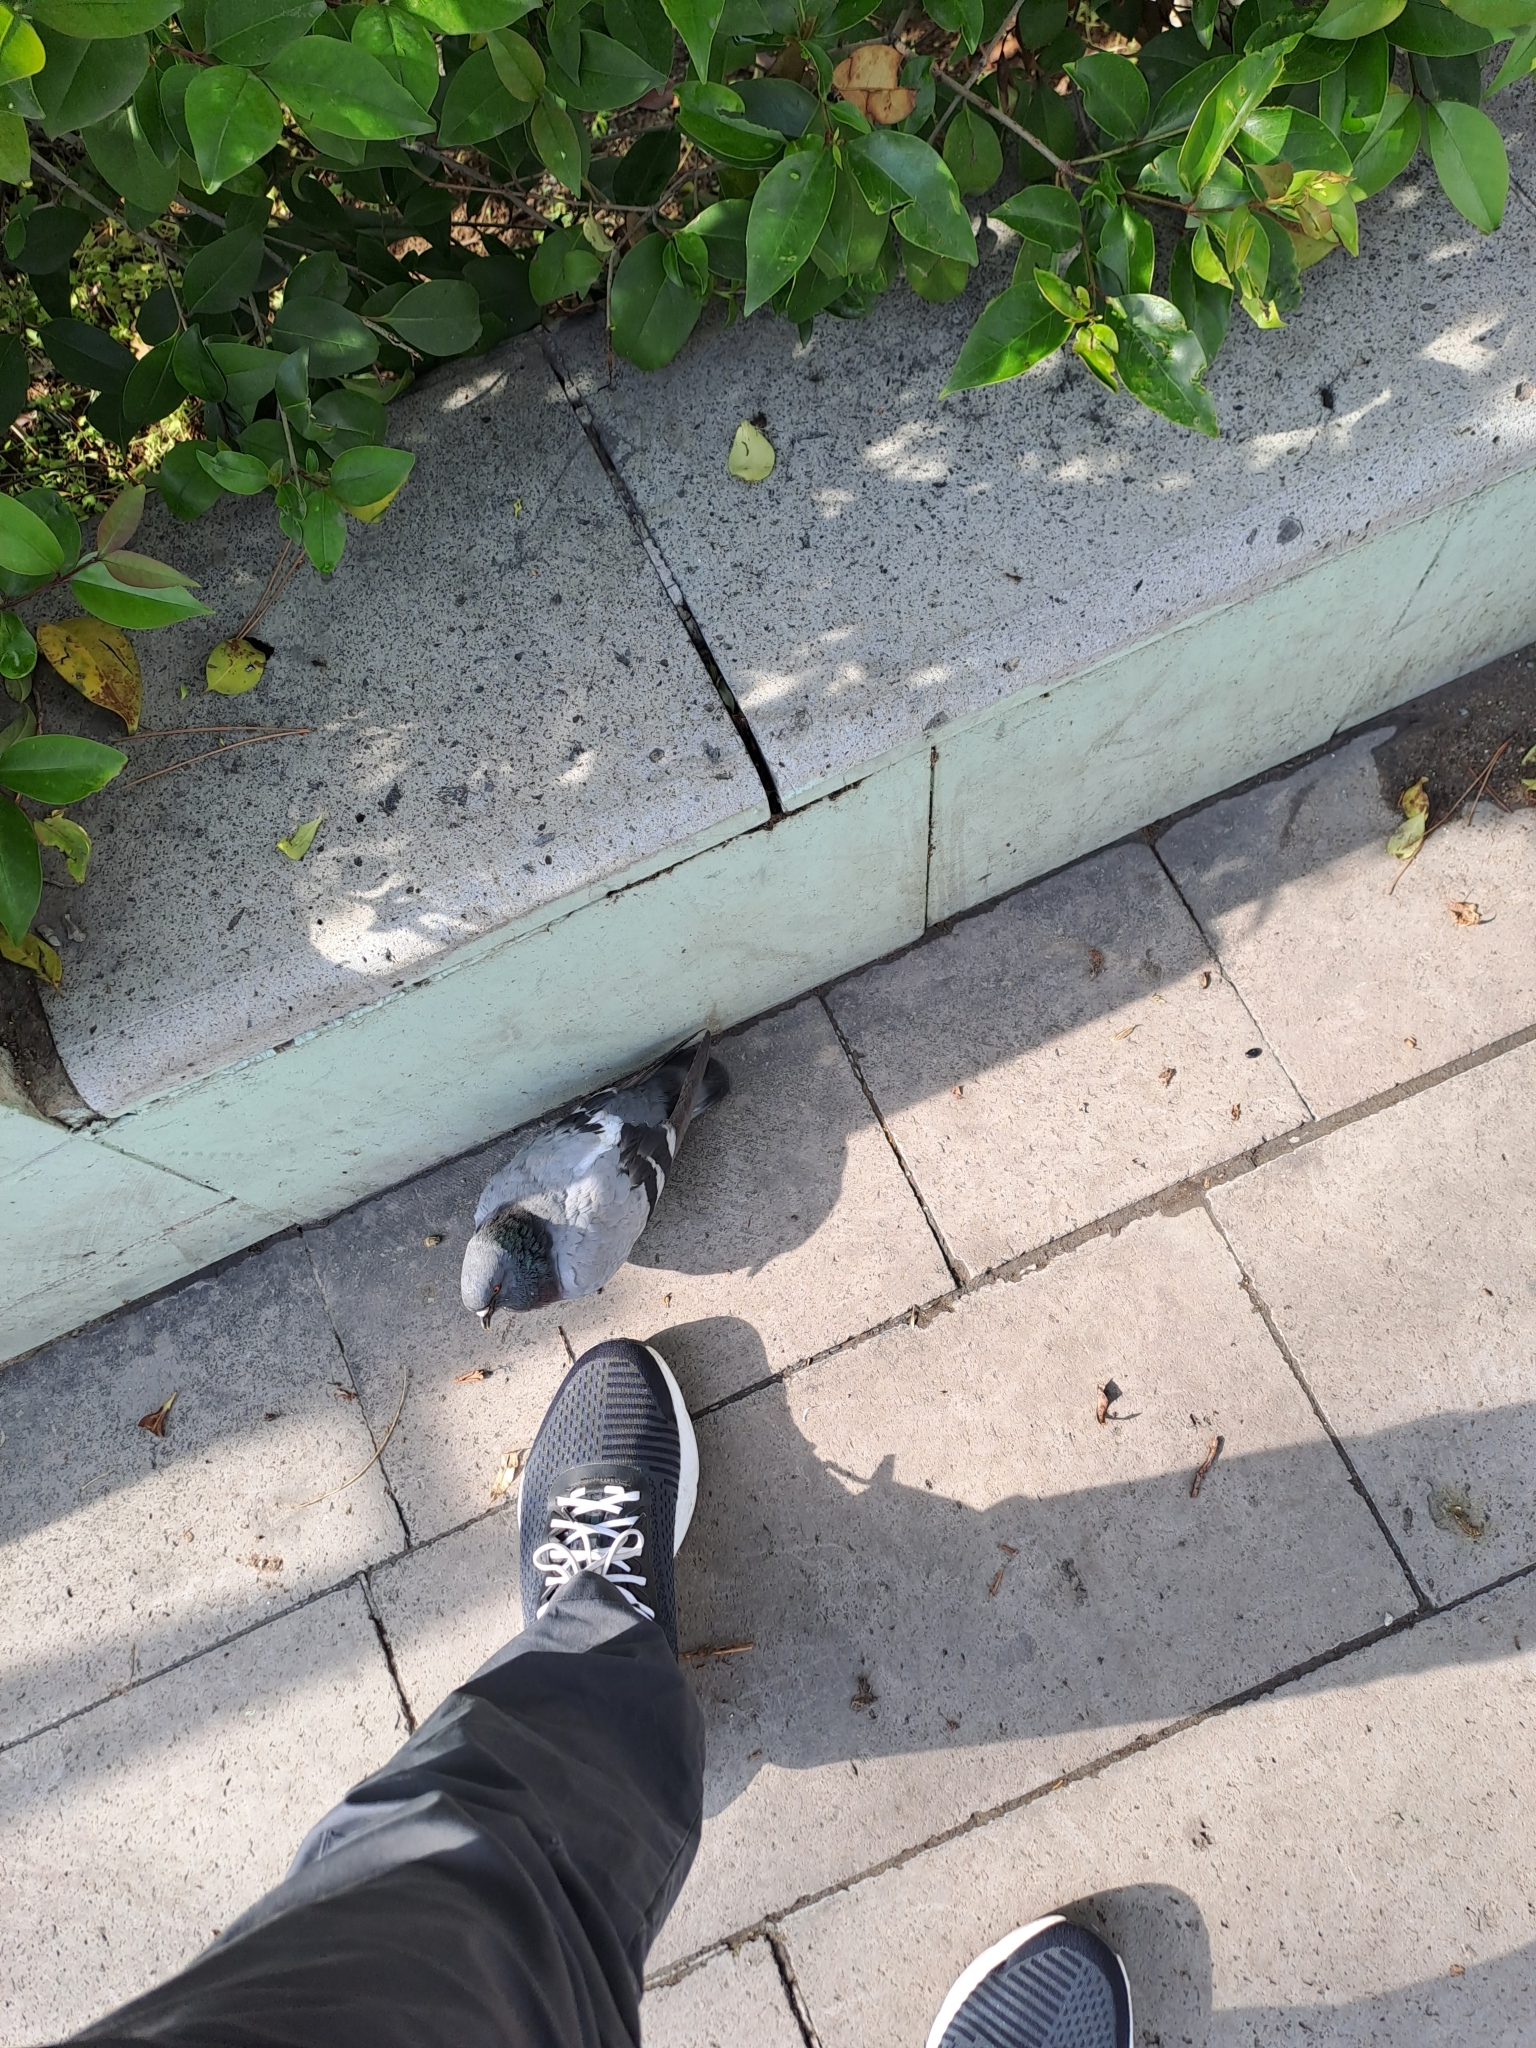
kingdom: Animalia
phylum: Chordata
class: Aves
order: Columbiformes
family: Columbidae
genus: Columba
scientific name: Columba livia
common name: Rock pigeon
